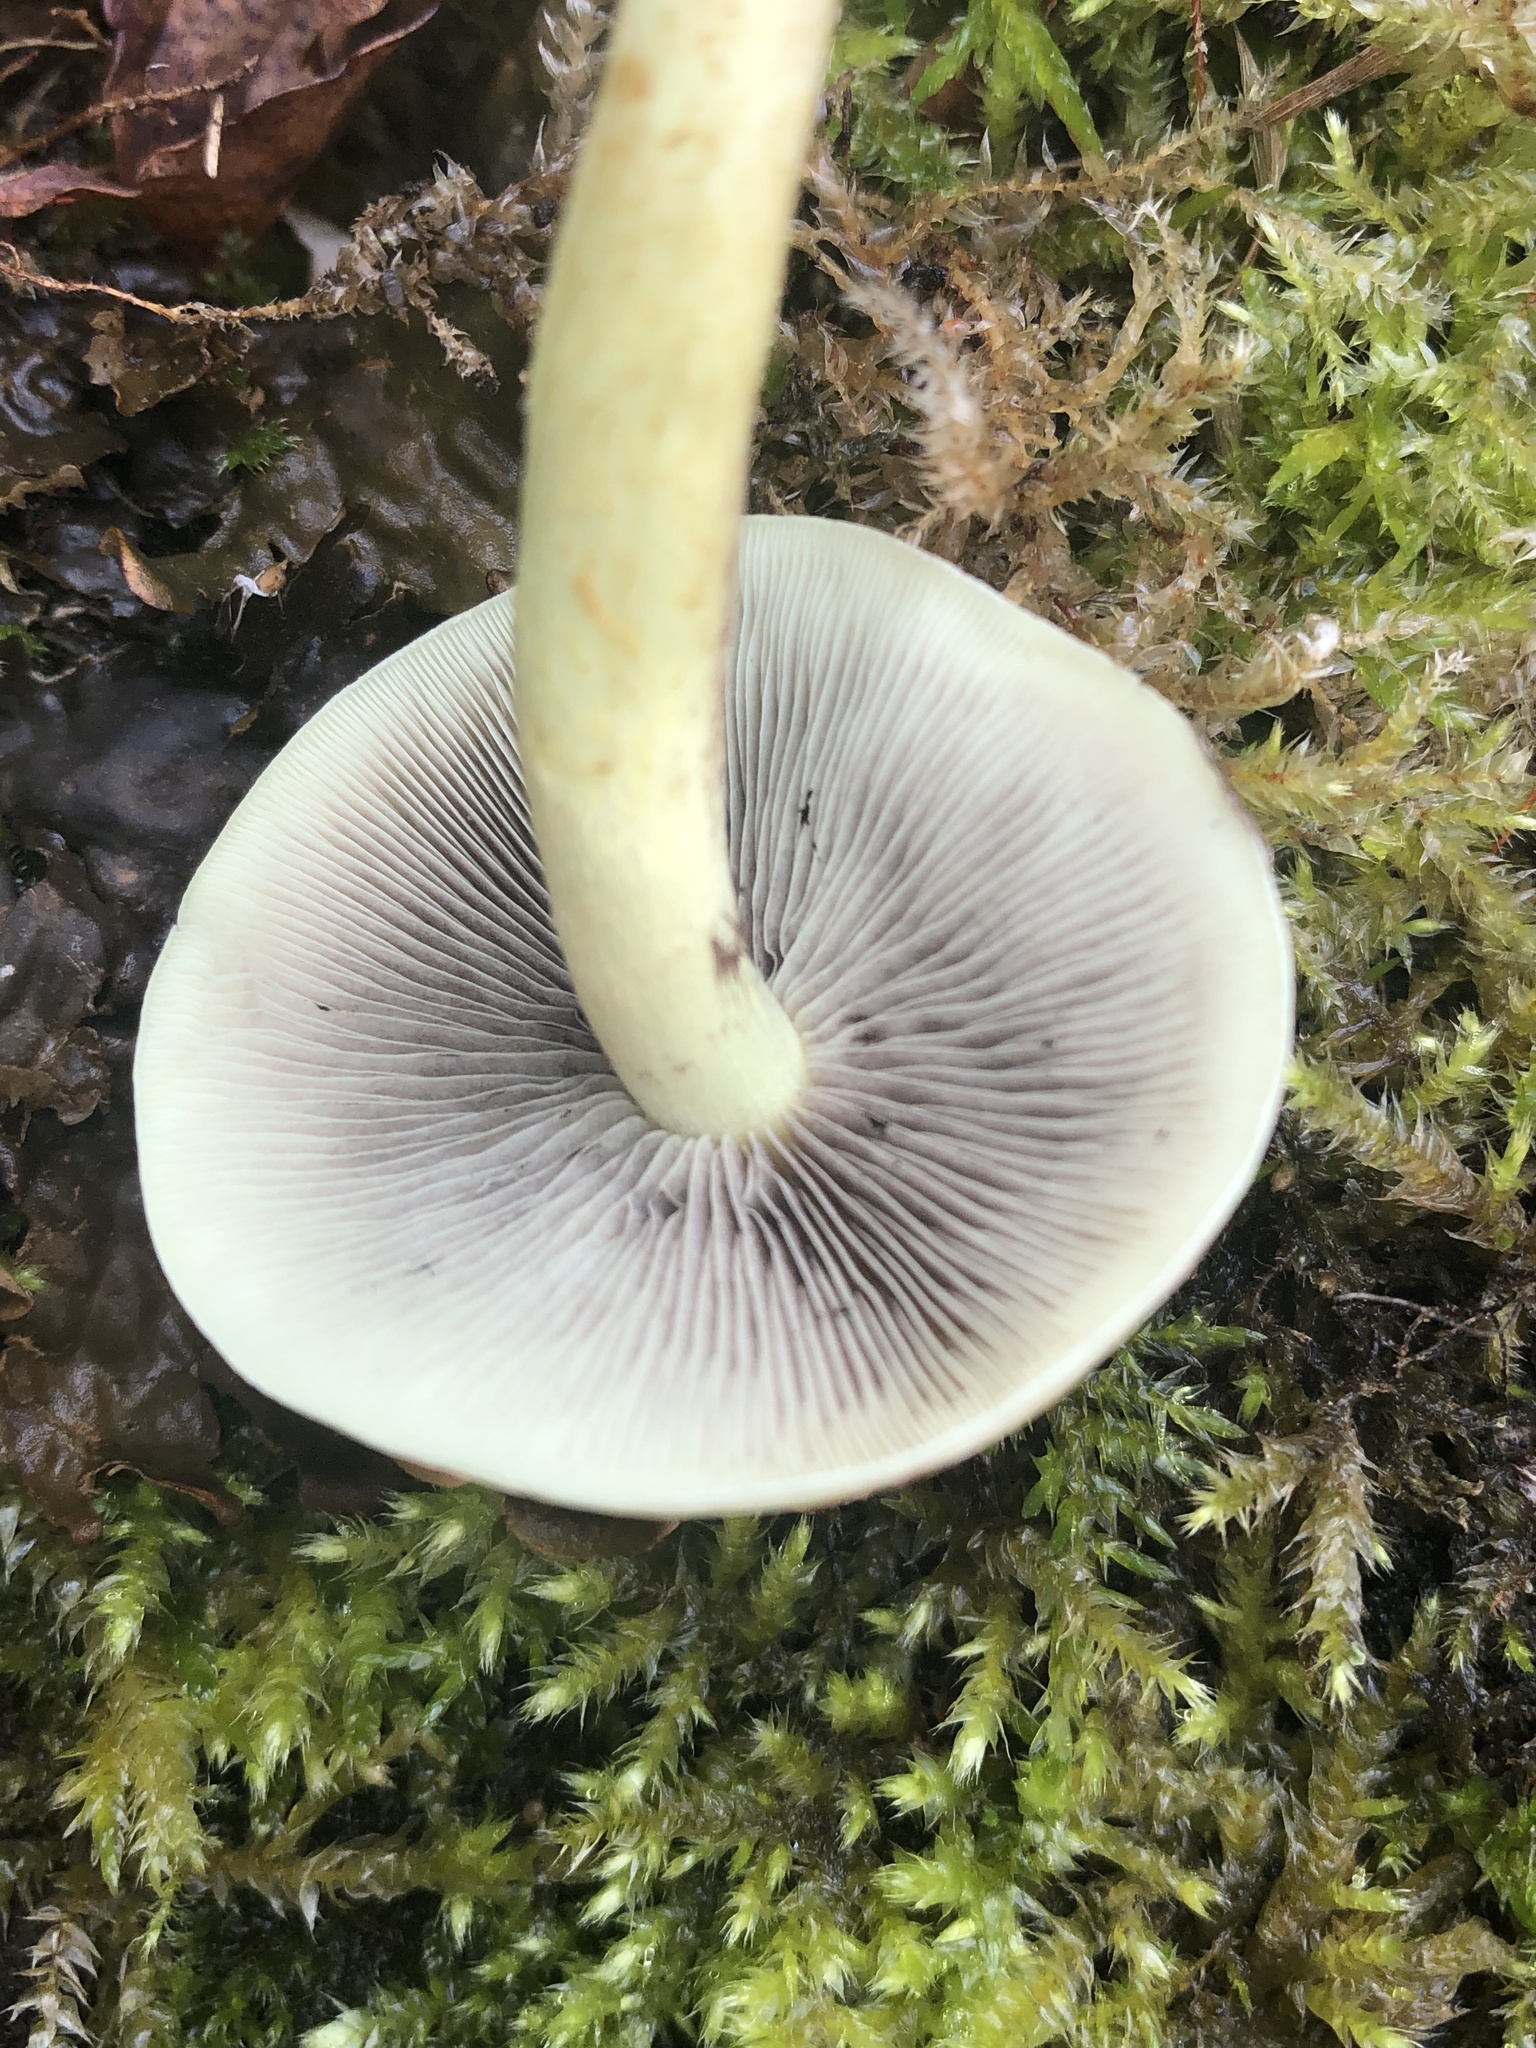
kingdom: Fungi
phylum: Basidiomycota
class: Agaricomycetes
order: Agaricales
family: Strophariaceae
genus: Hypholoma
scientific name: Hypholoma fasciculare
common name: Sulphur tuft
